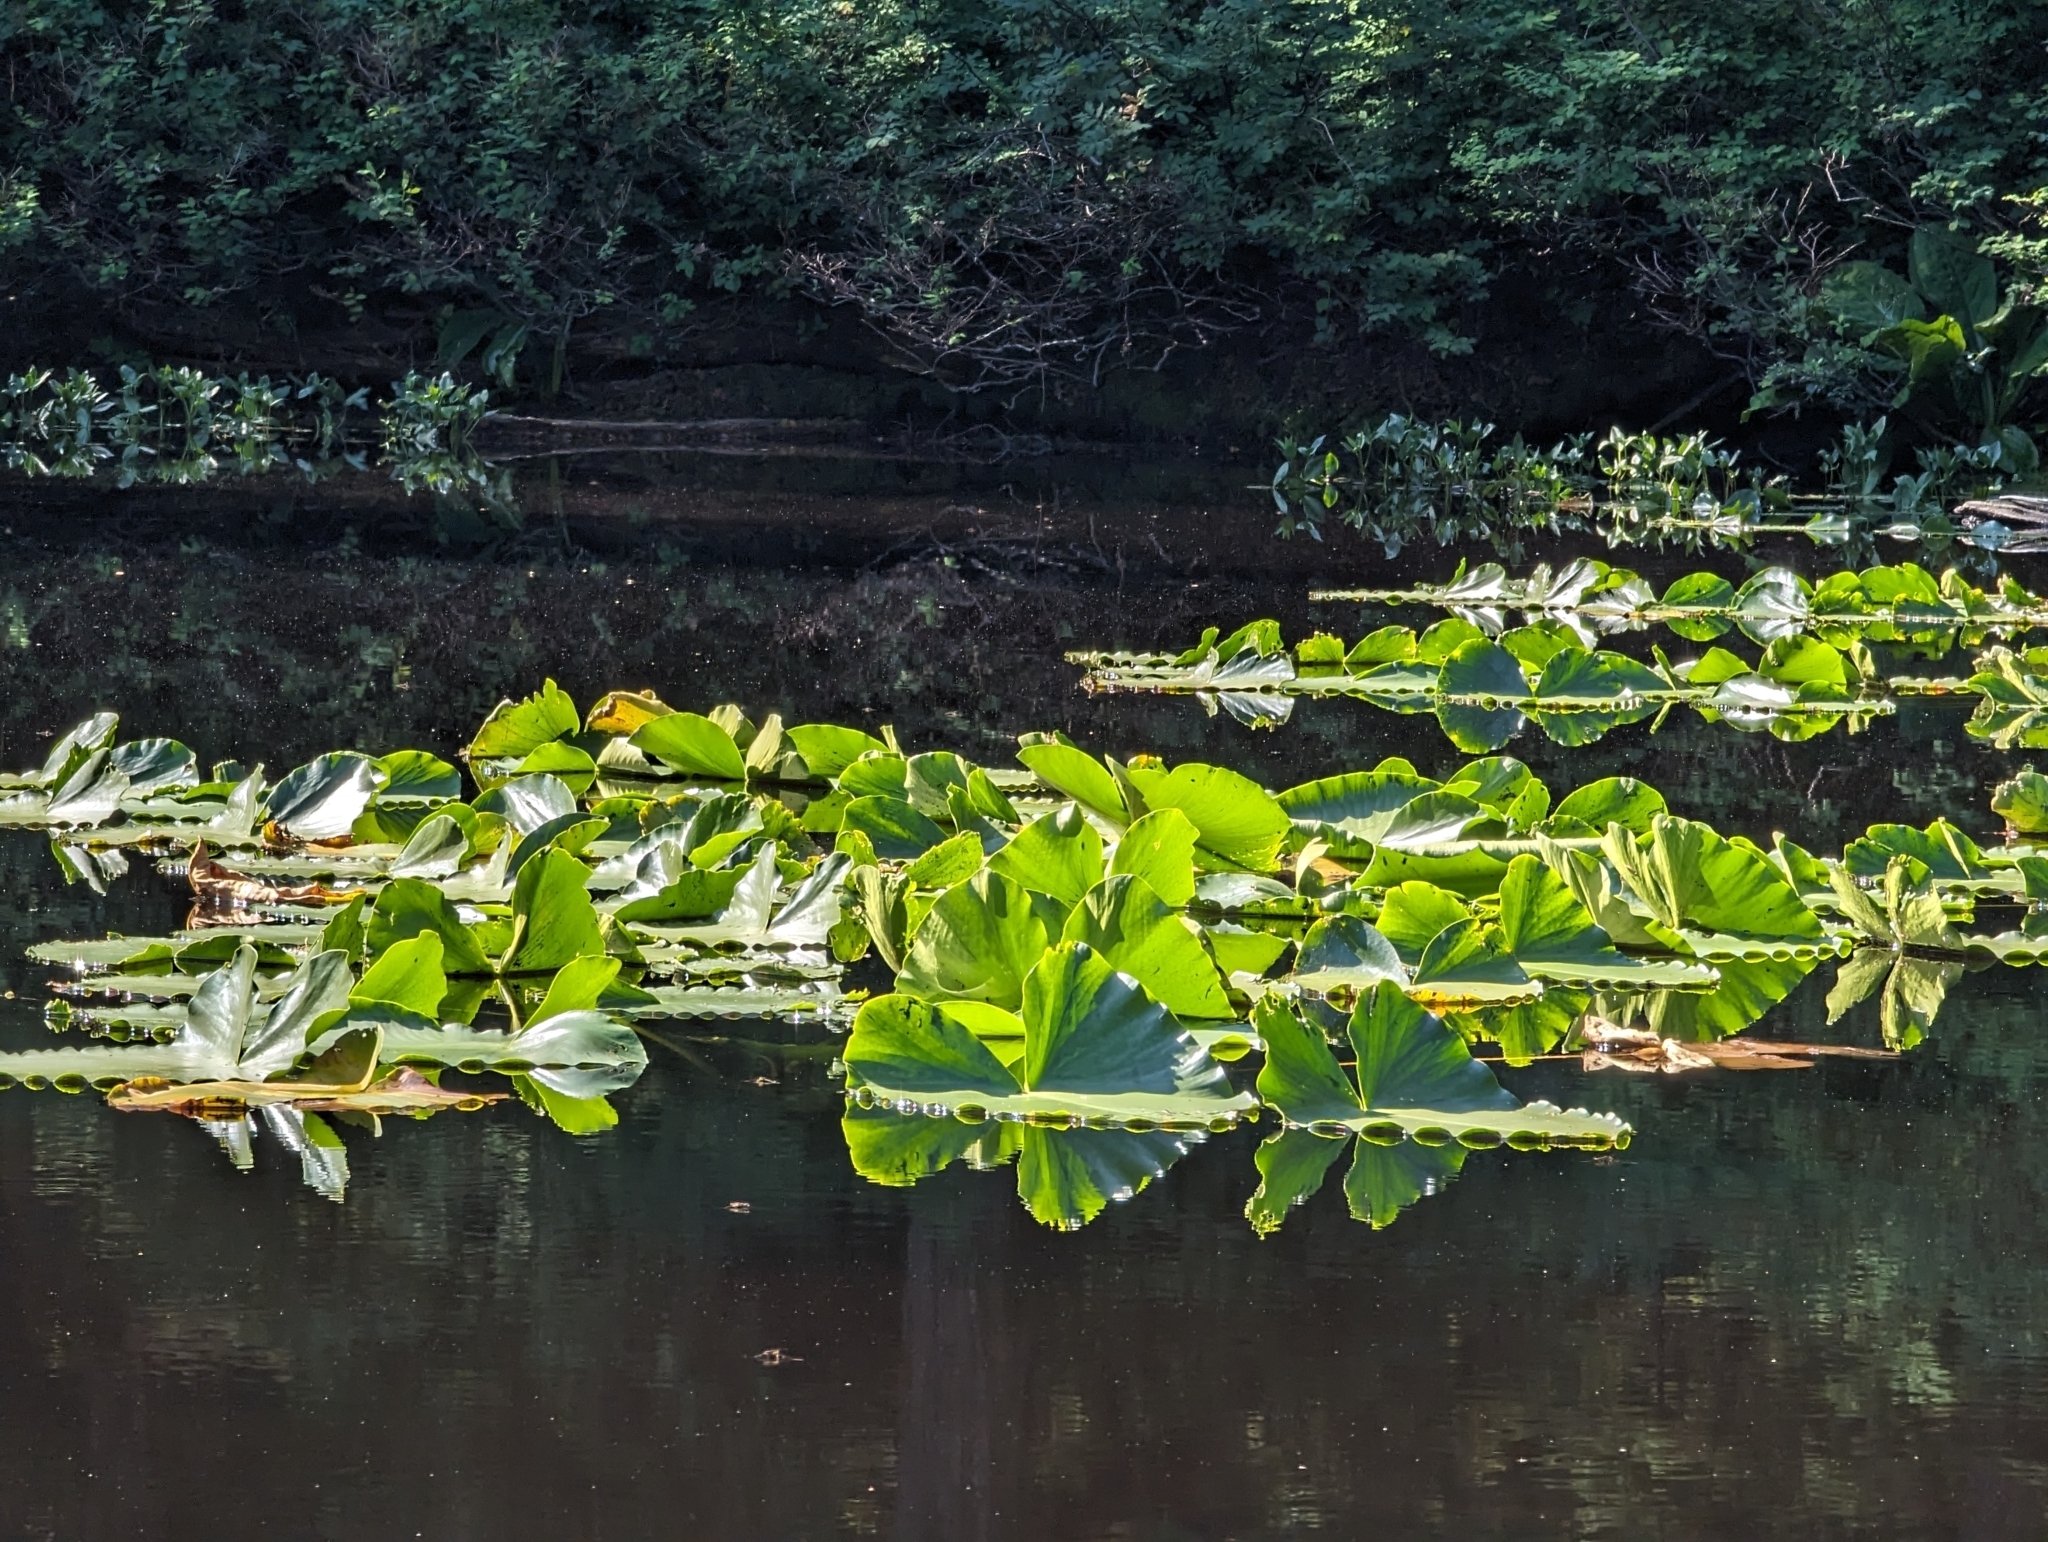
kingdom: Plantae
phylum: Tracheophyta
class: Magnoliopsida
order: Nymphaeales
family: Nymphaeaceae
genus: Nuphar
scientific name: Nuphar polysepala
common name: Rocky mountain cow-lily
